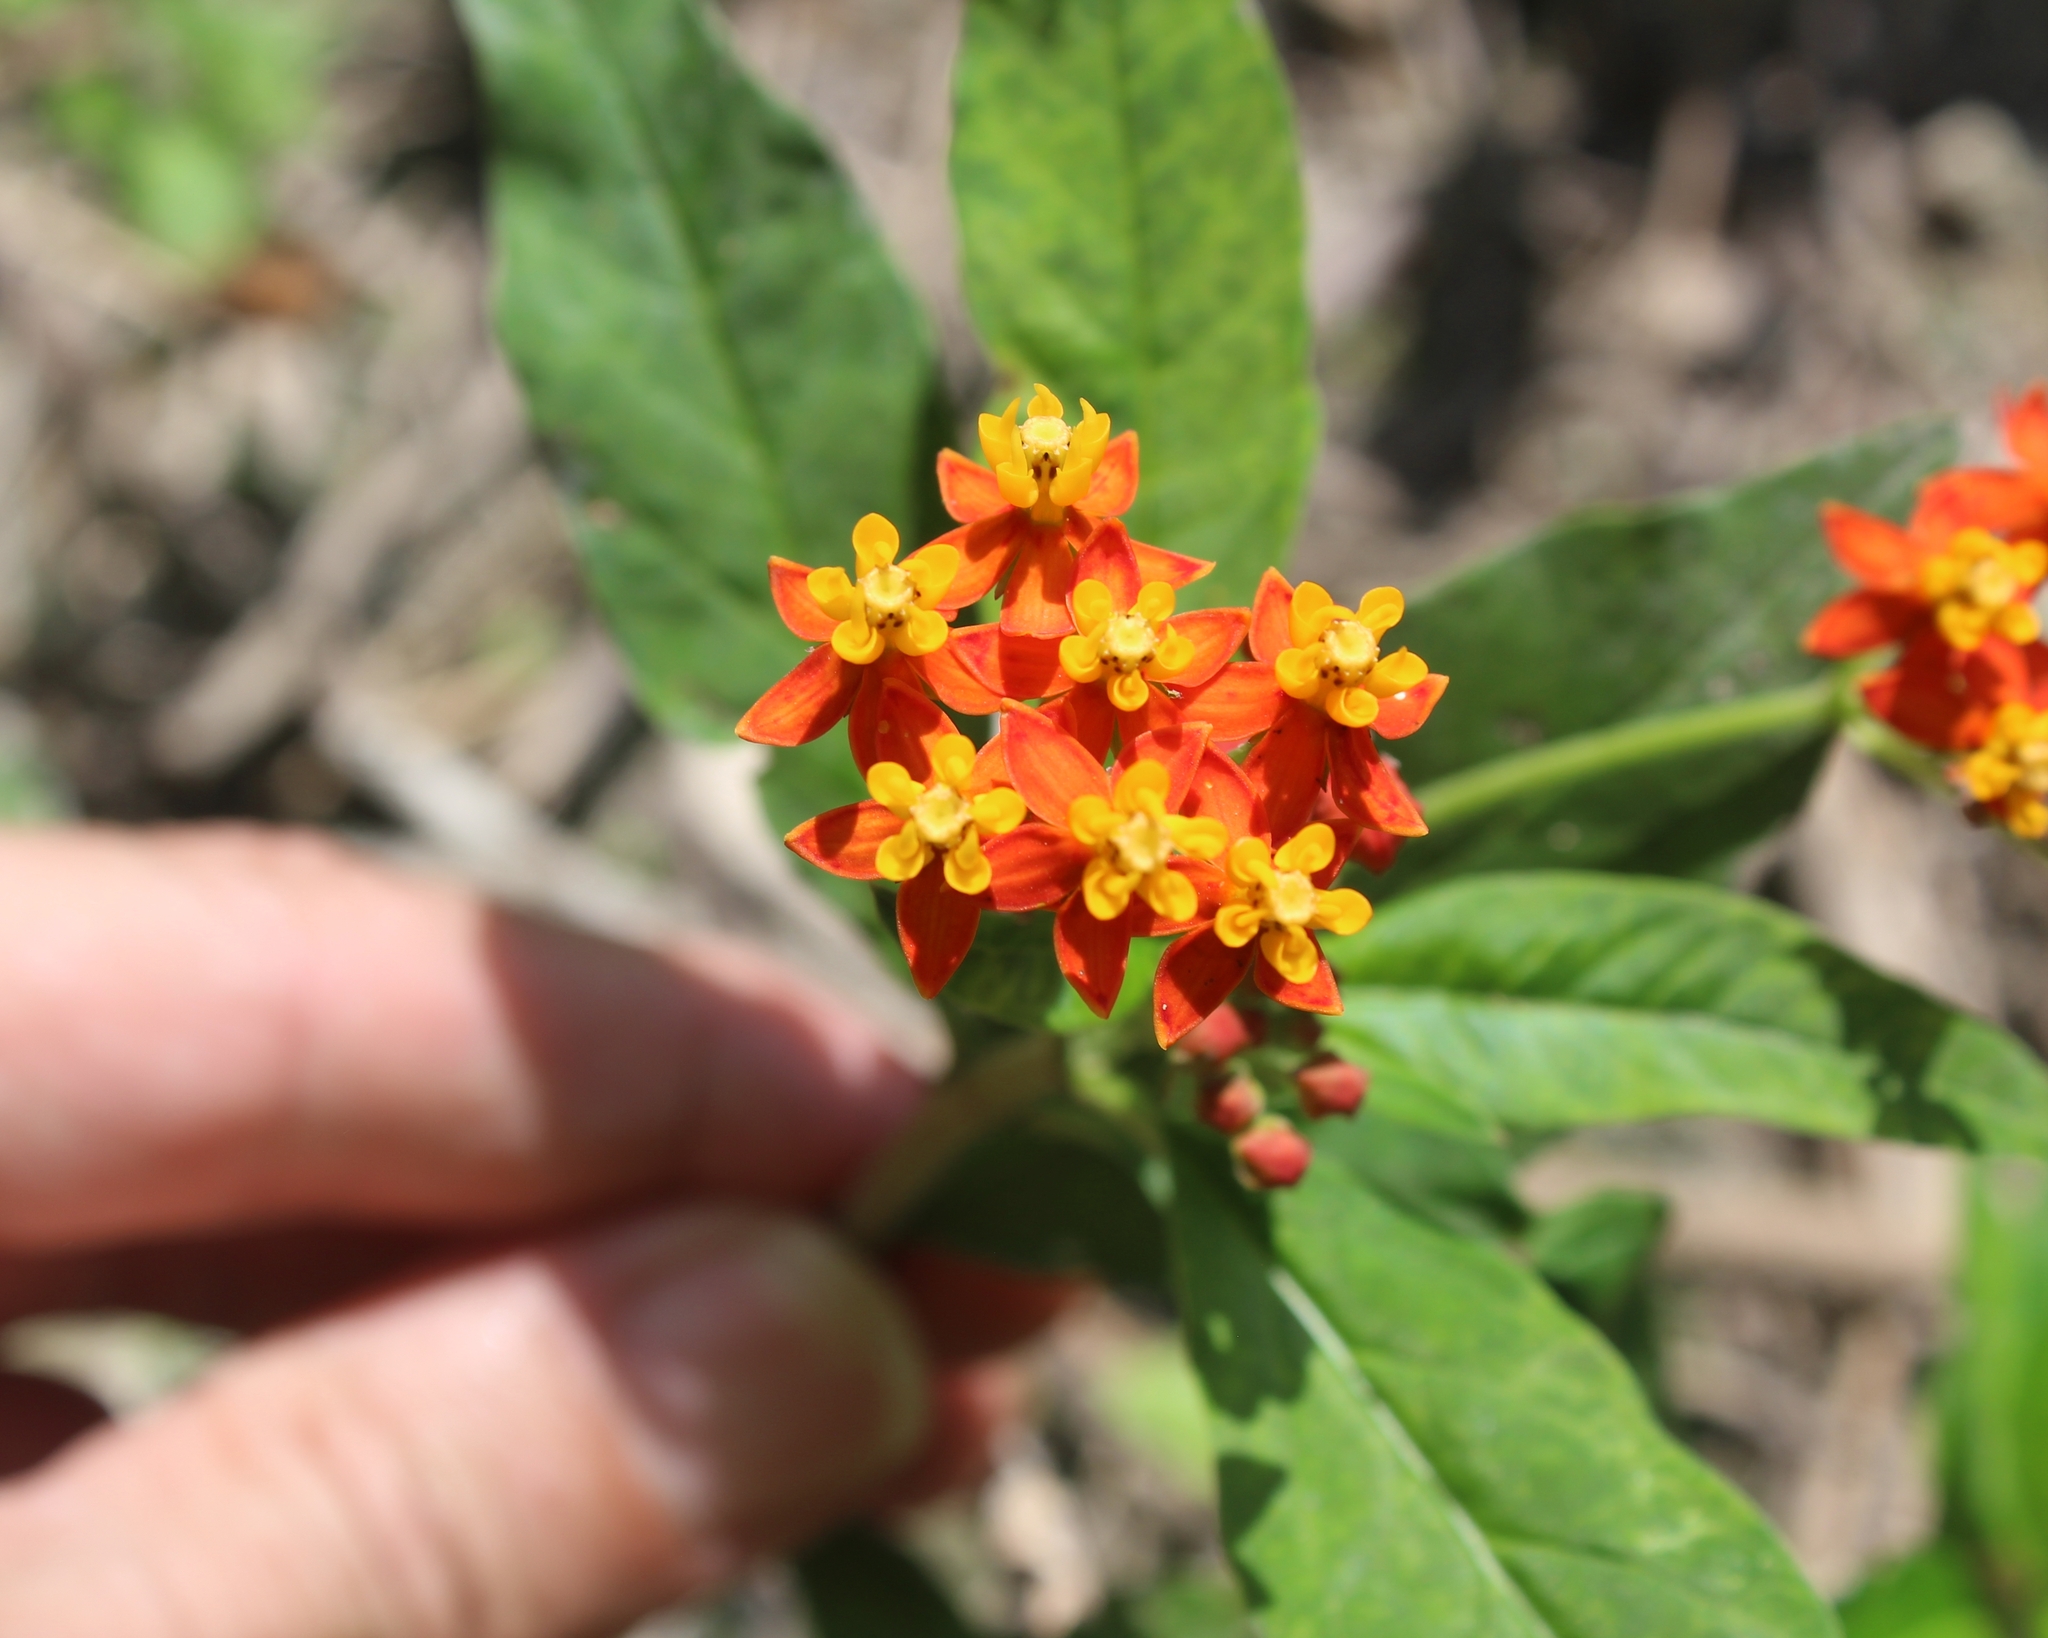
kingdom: Plantae
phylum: Tracheophyta
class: Magnoliopsida
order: Gentianales
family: Apocynaceae
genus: Asclepias
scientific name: Asclepias curassavica
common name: Bloodflower
